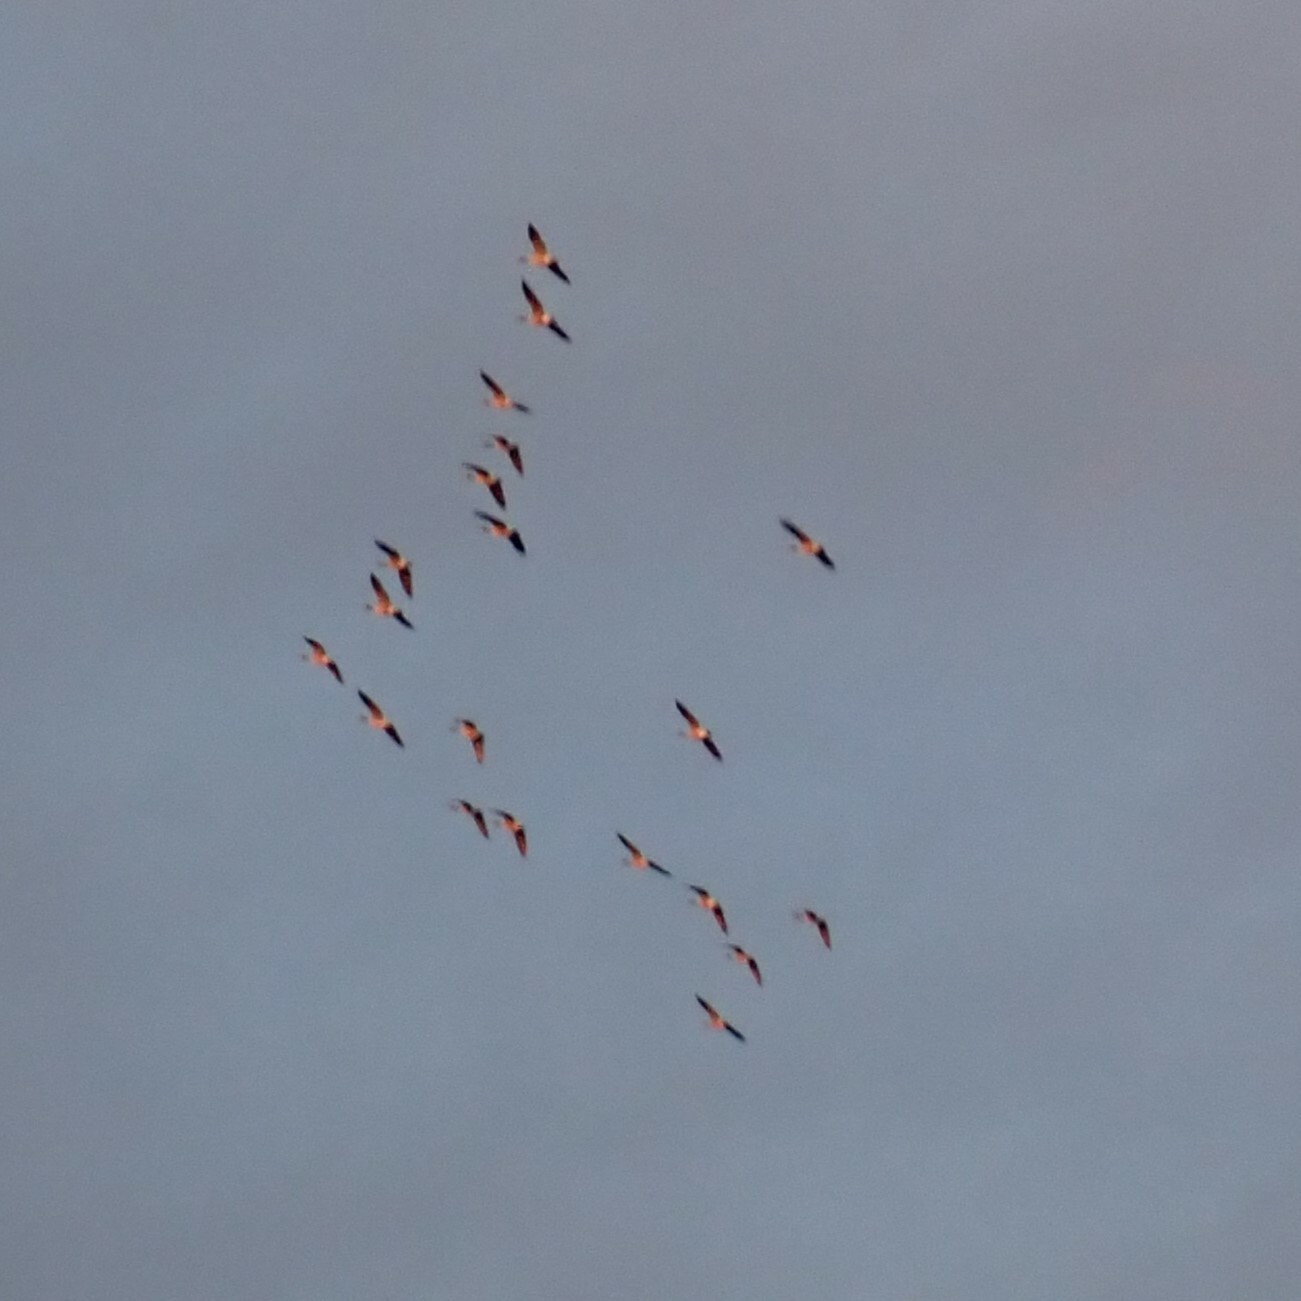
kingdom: Animalia
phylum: Chordata
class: Aves
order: Anseriformes
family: Anatidae
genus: Branta
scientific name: Branta canadensis
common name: Canada goose
